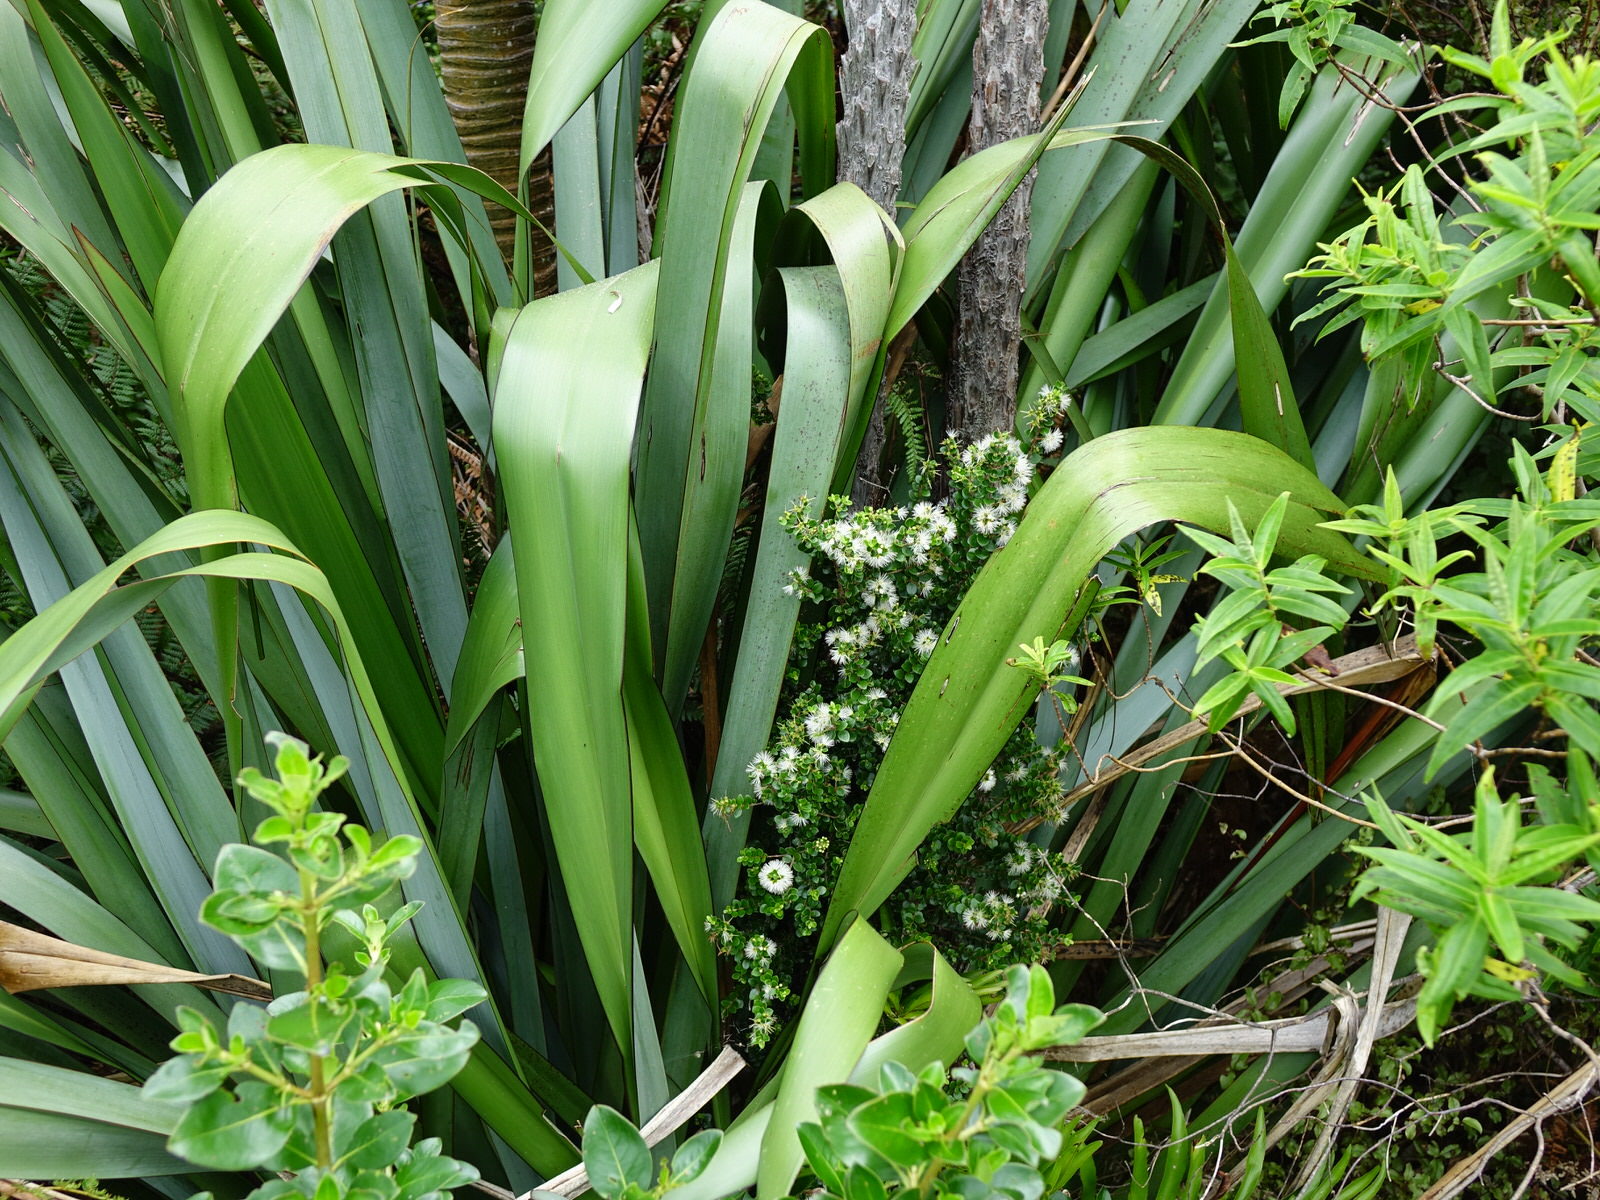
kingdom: Plantae
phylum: Tracheophyta
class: Magnoliopsida
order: Myrtales
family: Myrtaceae
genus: Metrosideros
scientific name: Metrosideros perforata
